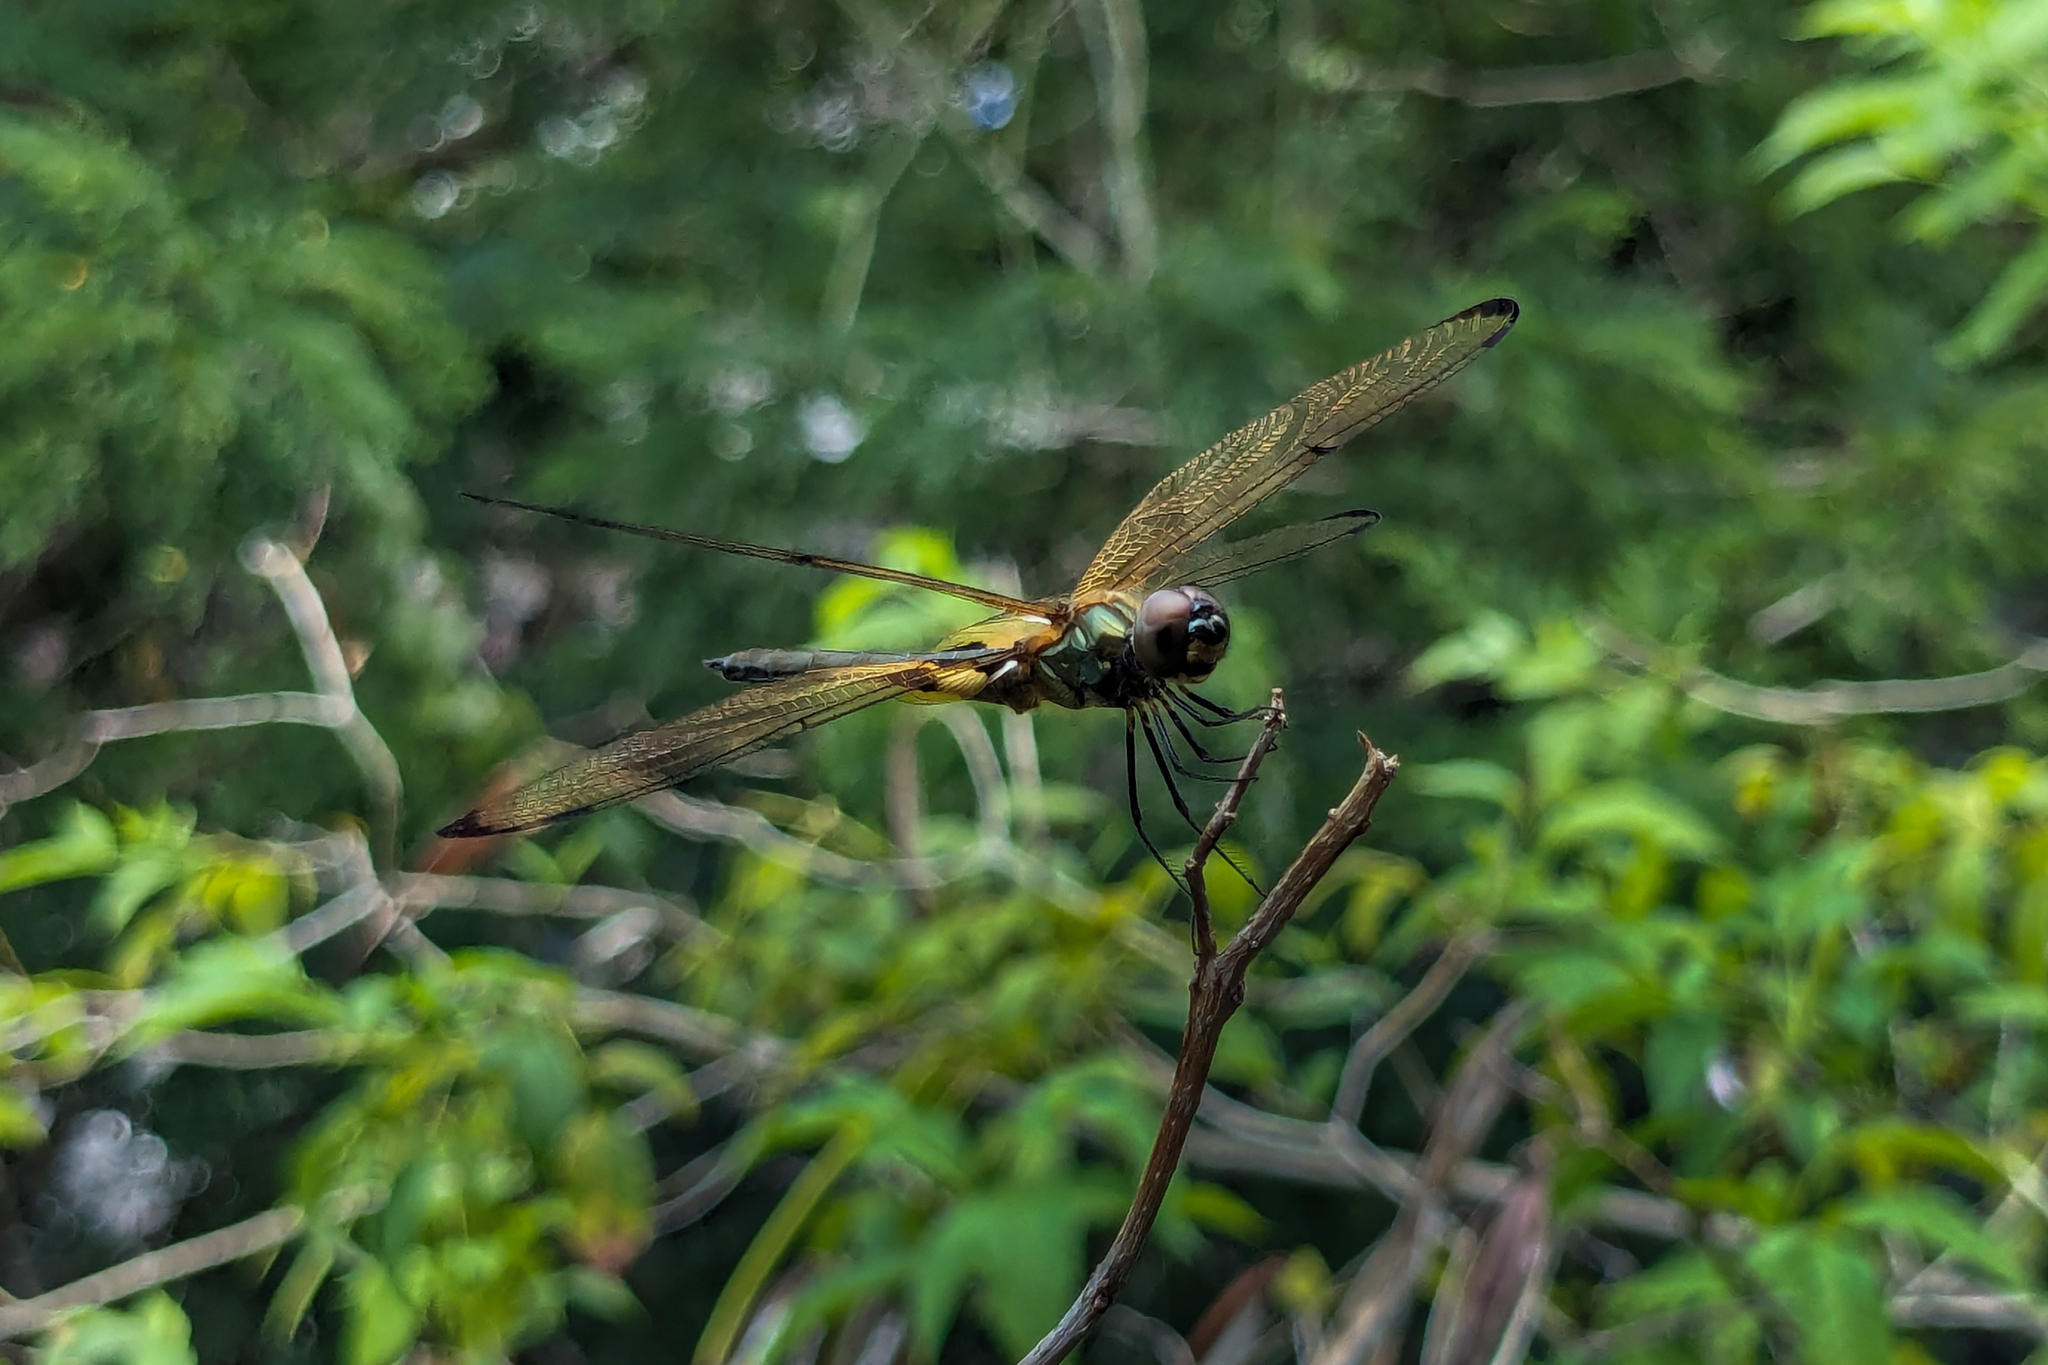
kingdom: Animalia
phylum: Arthropoda
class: Insecta
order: Odonata
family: Libellulidae
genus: Rhyothemis
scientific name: Rhyothemis phyllis
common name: Yellow-barred flutterer
